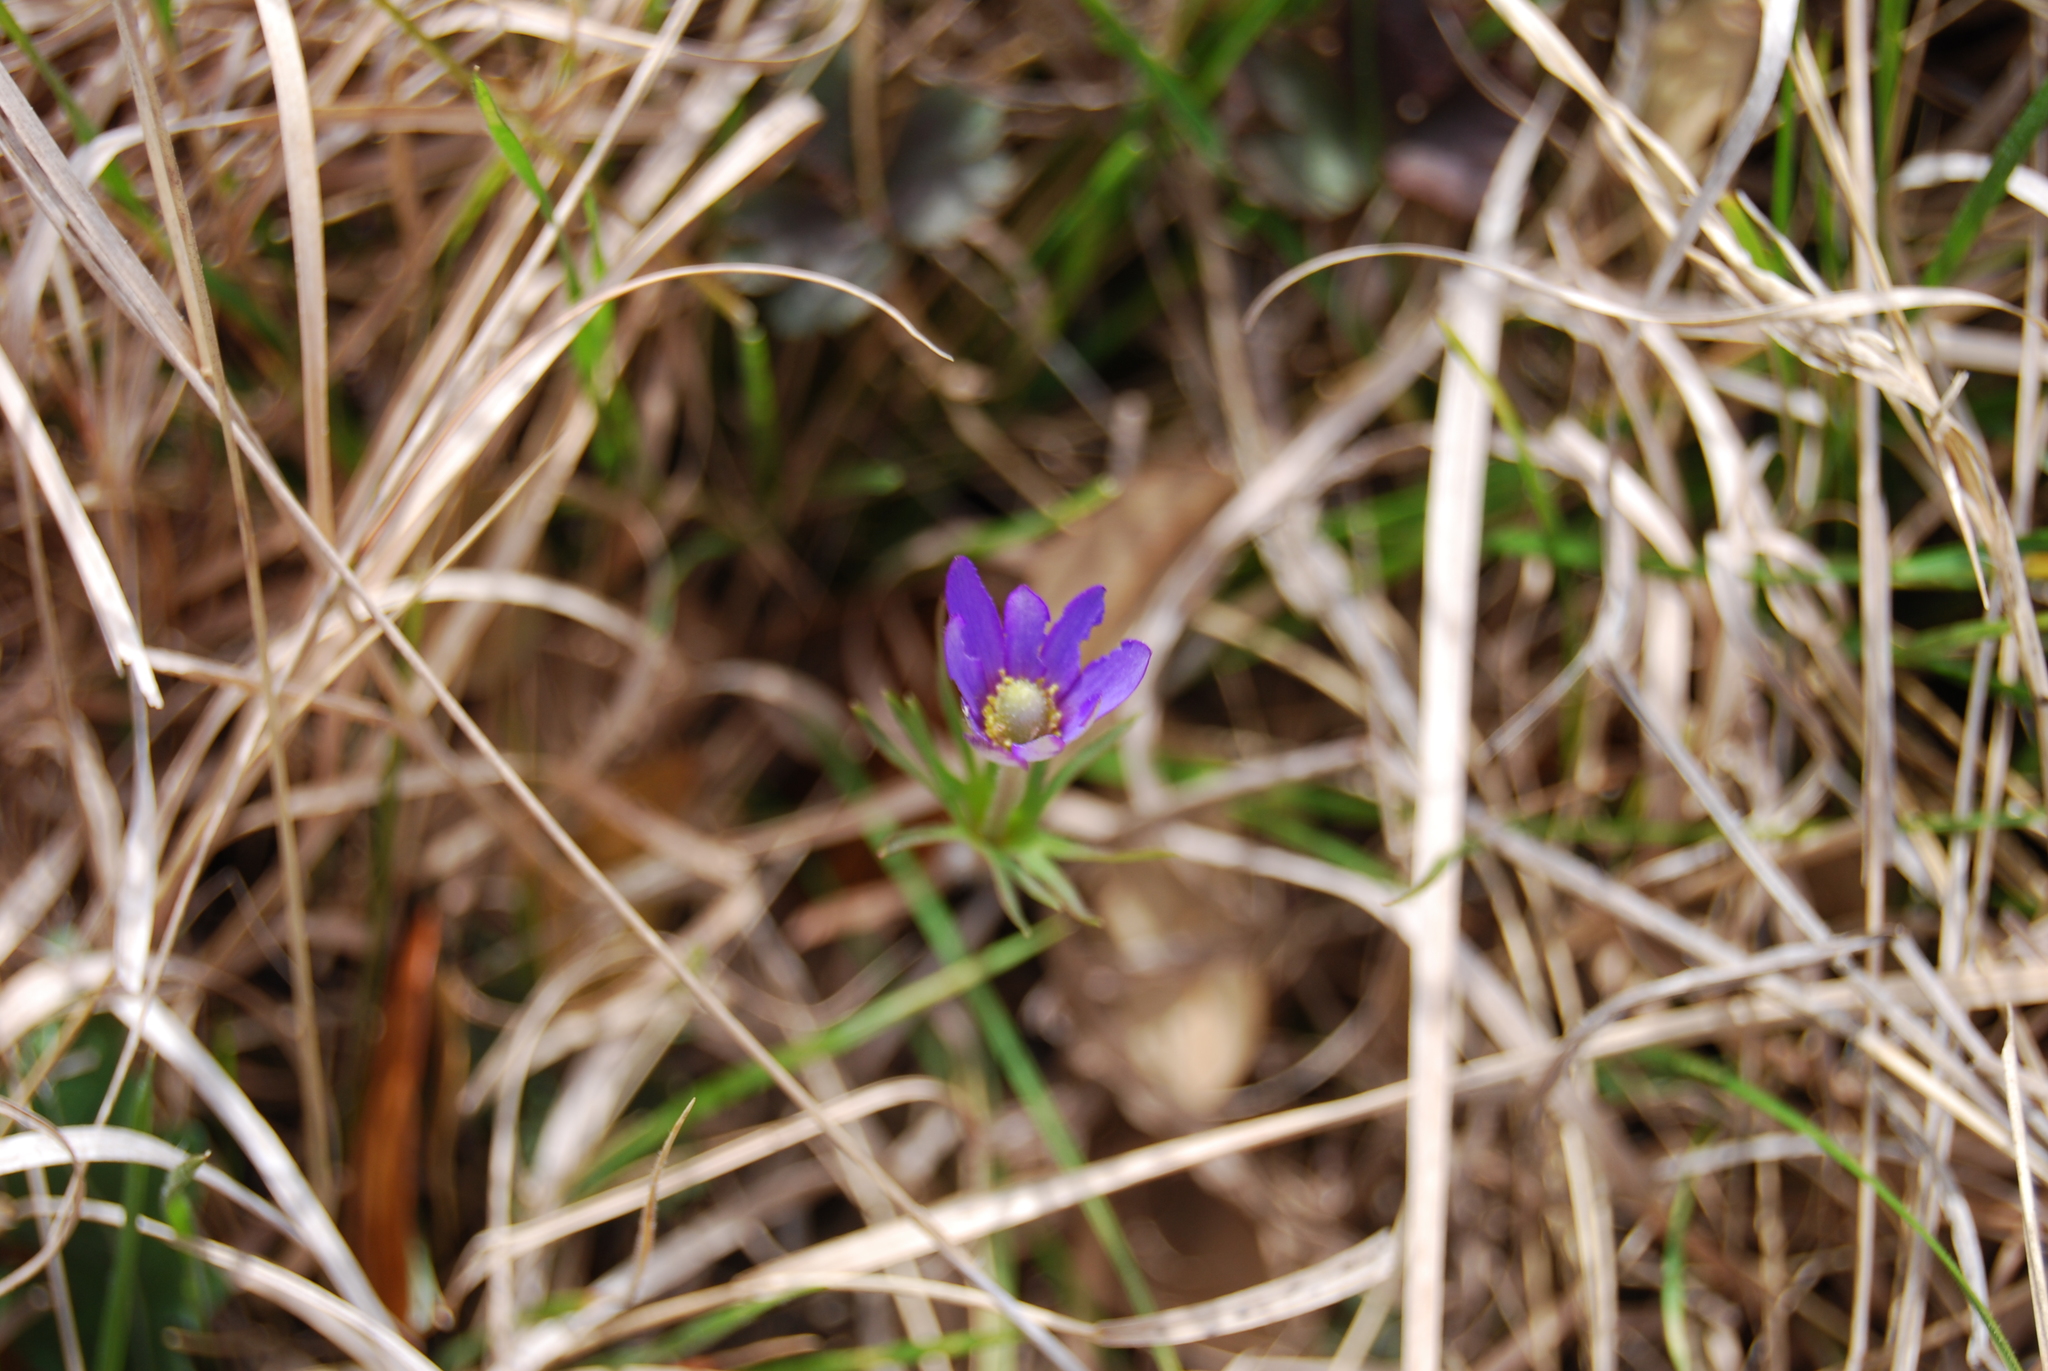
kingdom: Plantae
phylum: Tracheophyta
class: Magnoliopsida
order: Ranunculales
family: Ranunculaceae
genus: Anemone
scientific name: Anemone berlandieri
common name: Ten-petal anemone
